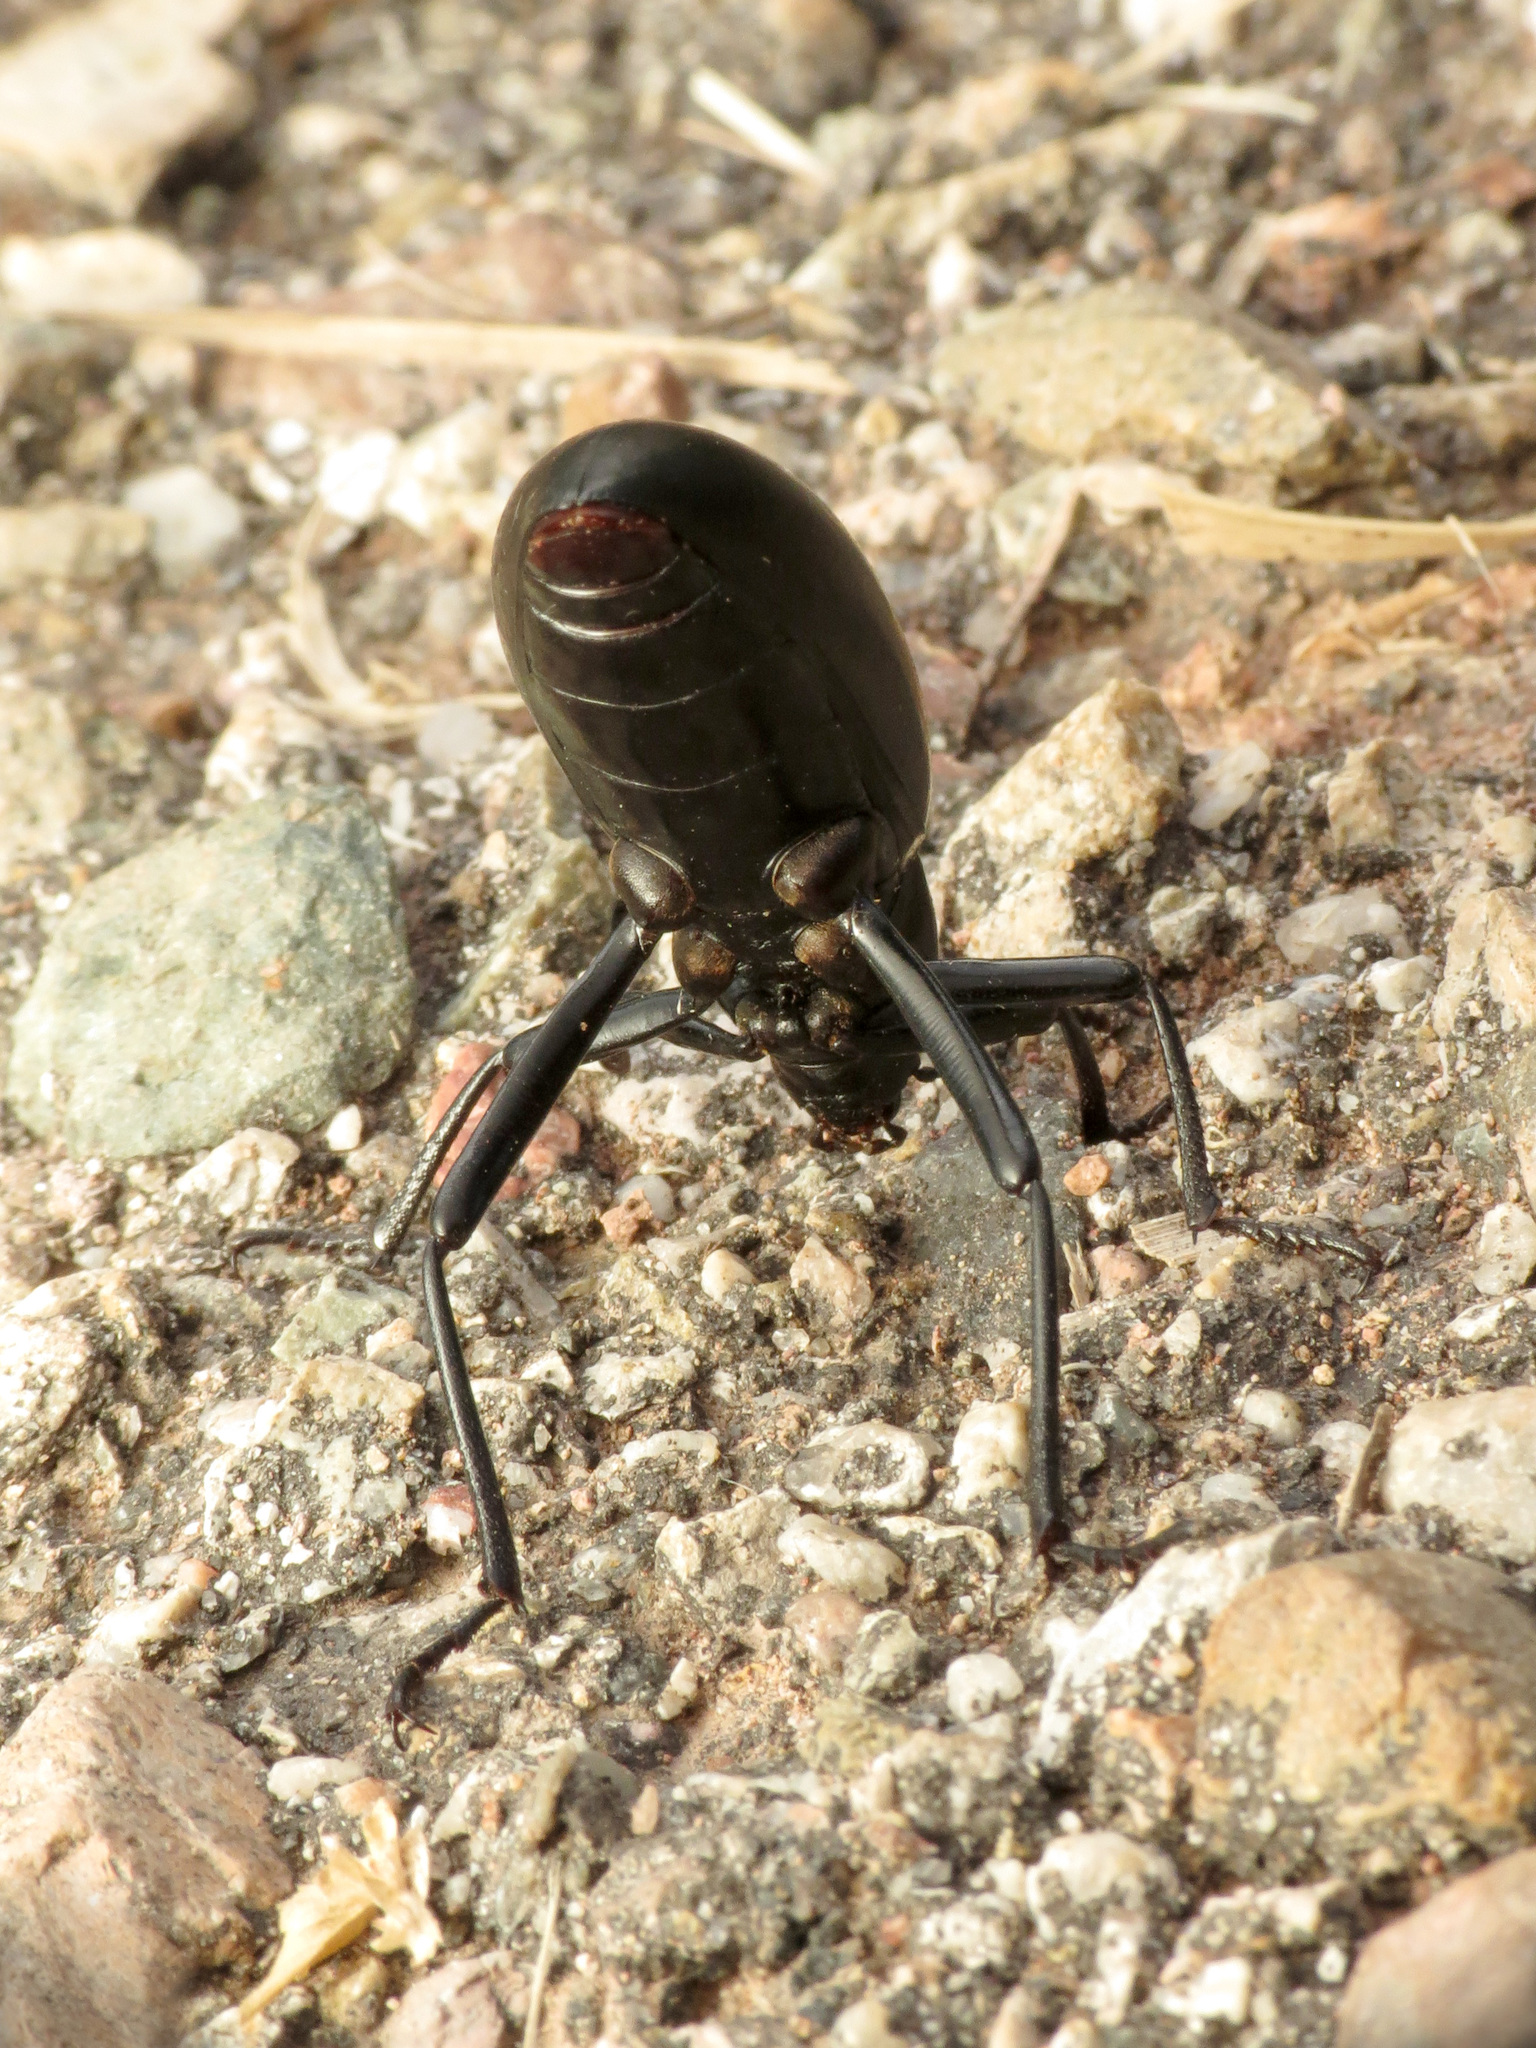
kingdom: Animalia
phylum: Arthropoda
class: Insecta
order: Coleoptera
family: Tenebrionidae
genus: Eleodes
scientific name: Eleodes longicollis
